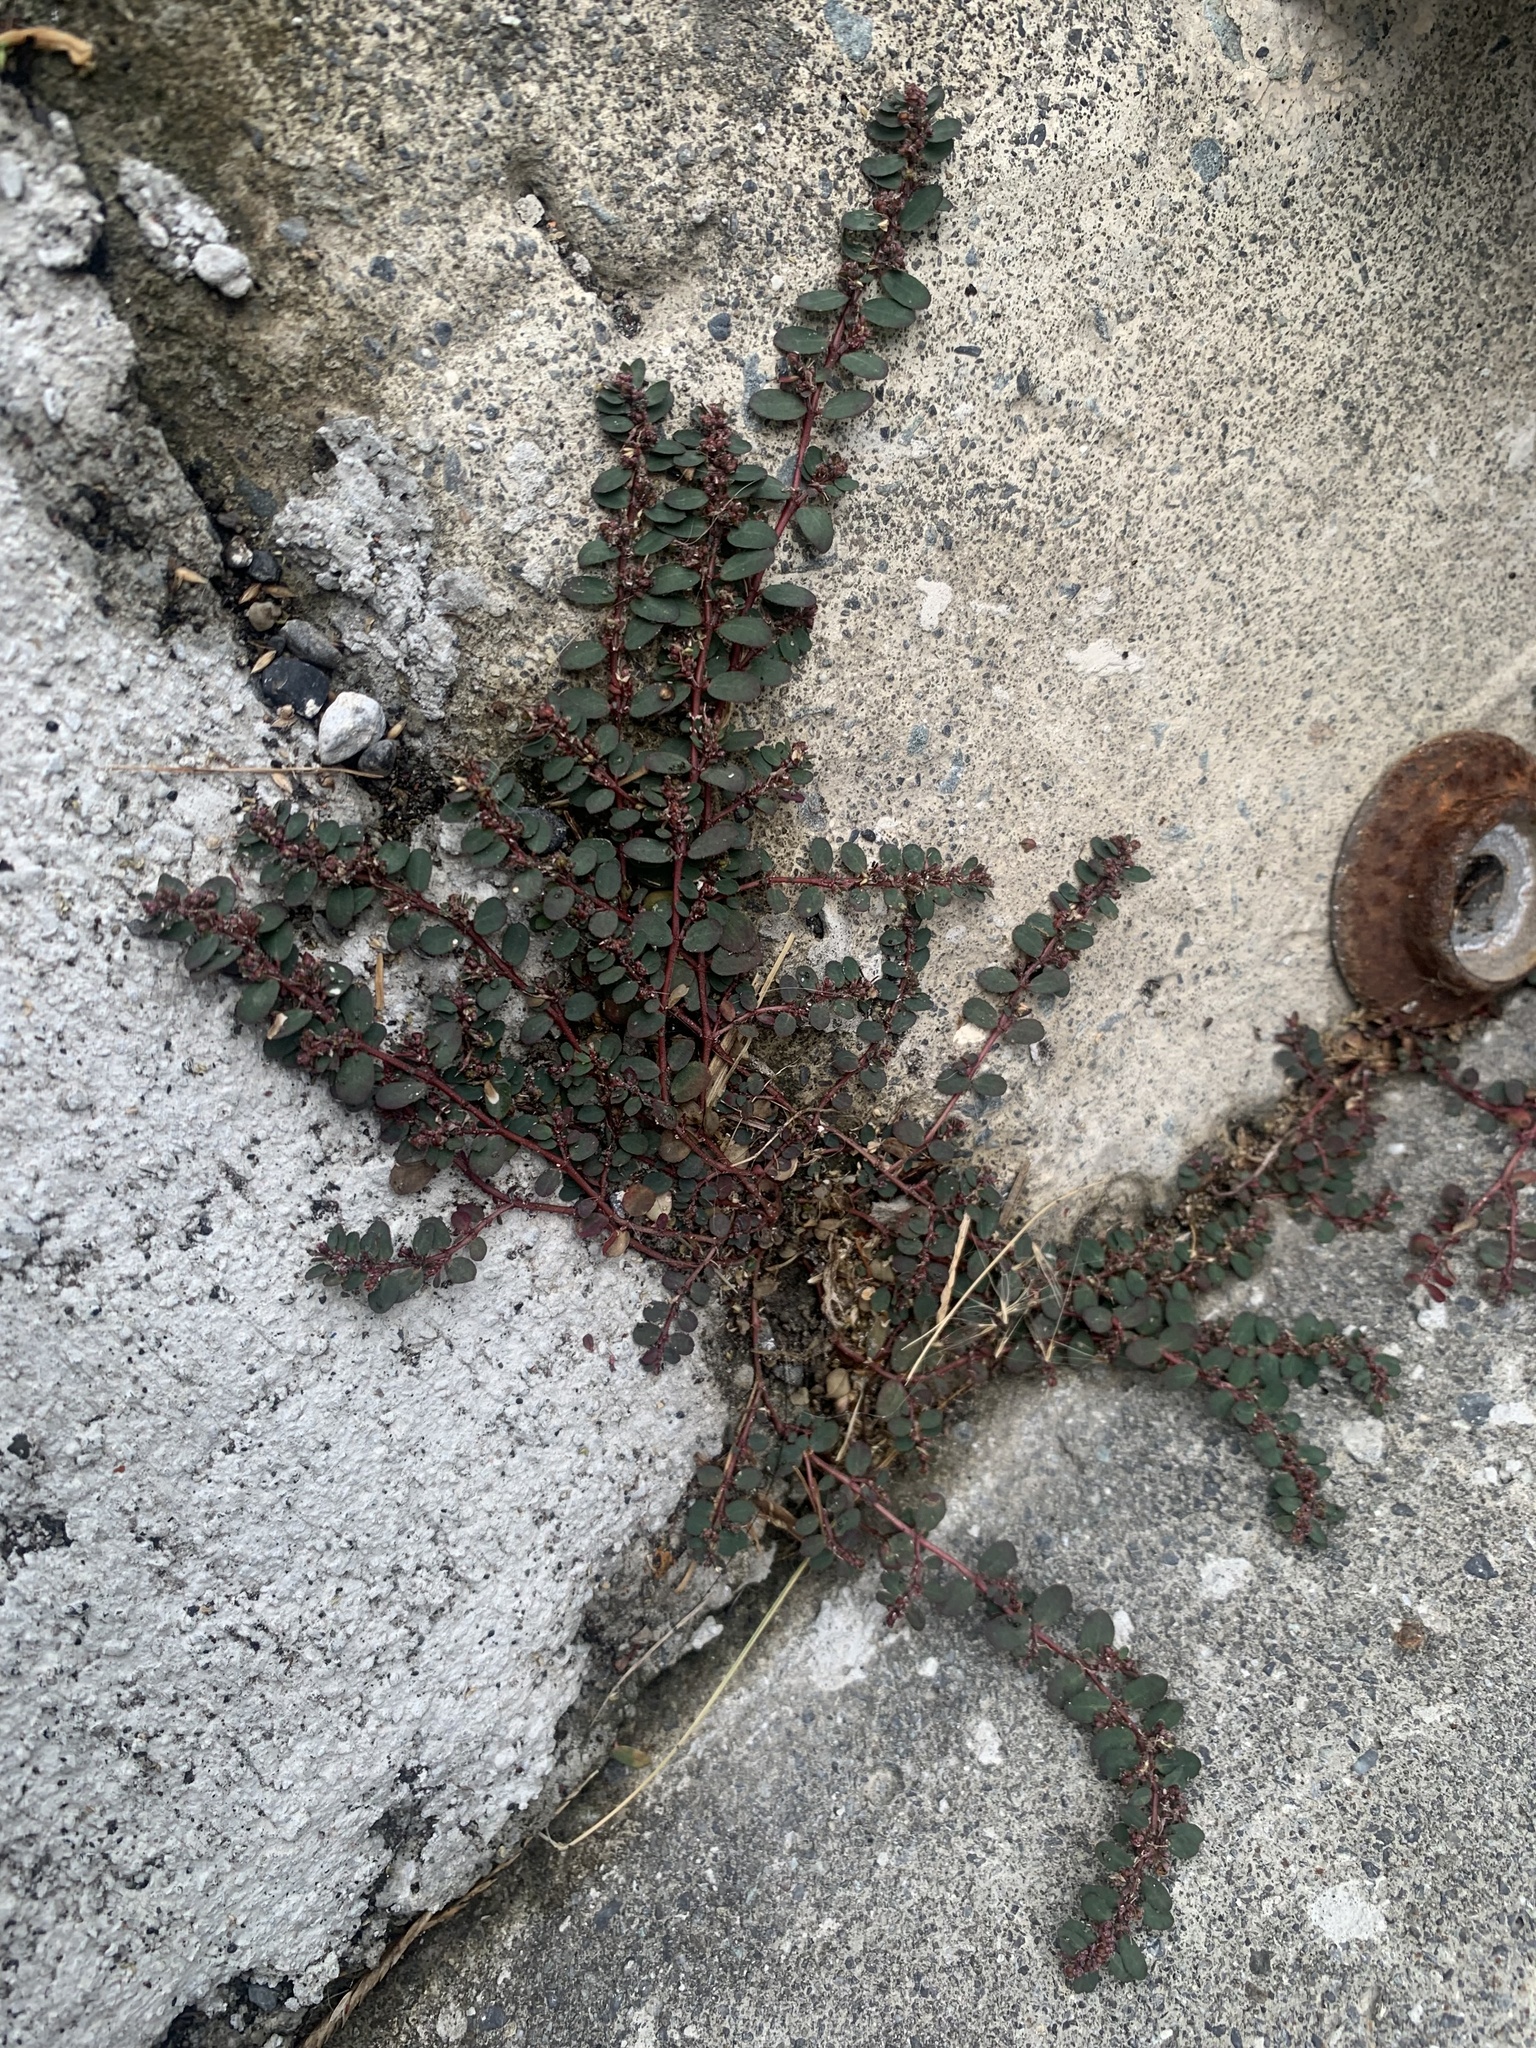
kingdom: Plantae
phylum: Tracheophyta
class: Magnoliopsida
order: Malpighiales
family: Euphorbiaceae
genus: Euphorbia
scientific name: Euphorbia prostrata
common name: Prostrate sandmat
